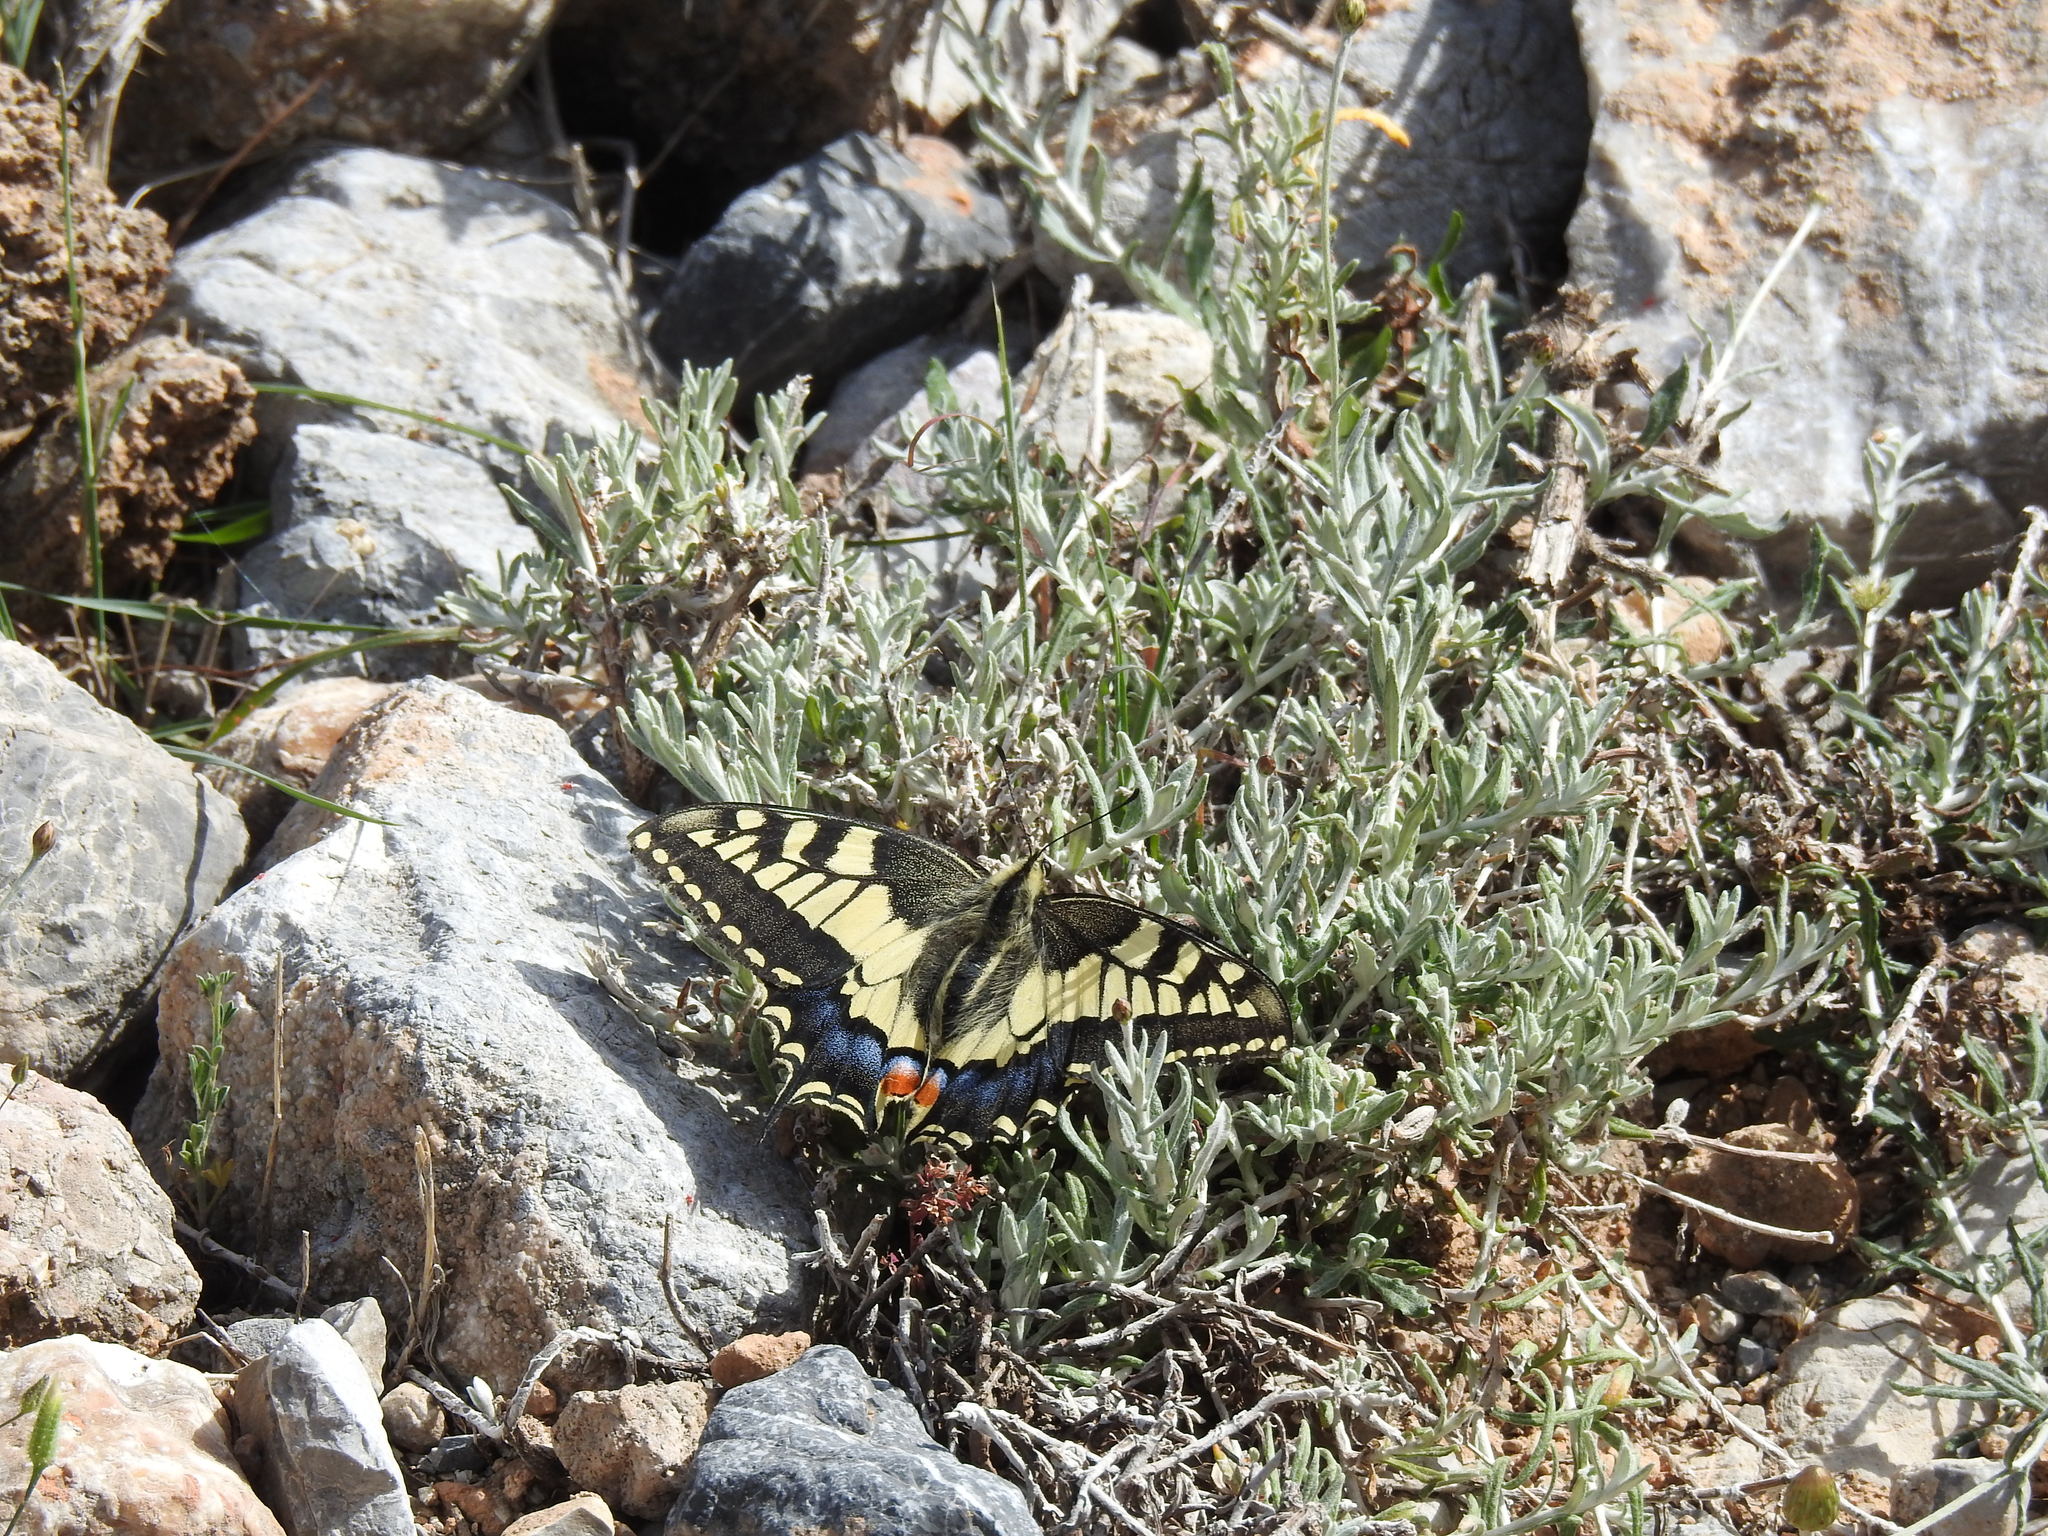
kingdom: Animalia
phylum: Arthropoda
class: Insecta
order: Lepidoptera
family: Papilionidae
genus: Papilio
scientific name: Papilio machaon
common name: Swallowtail
